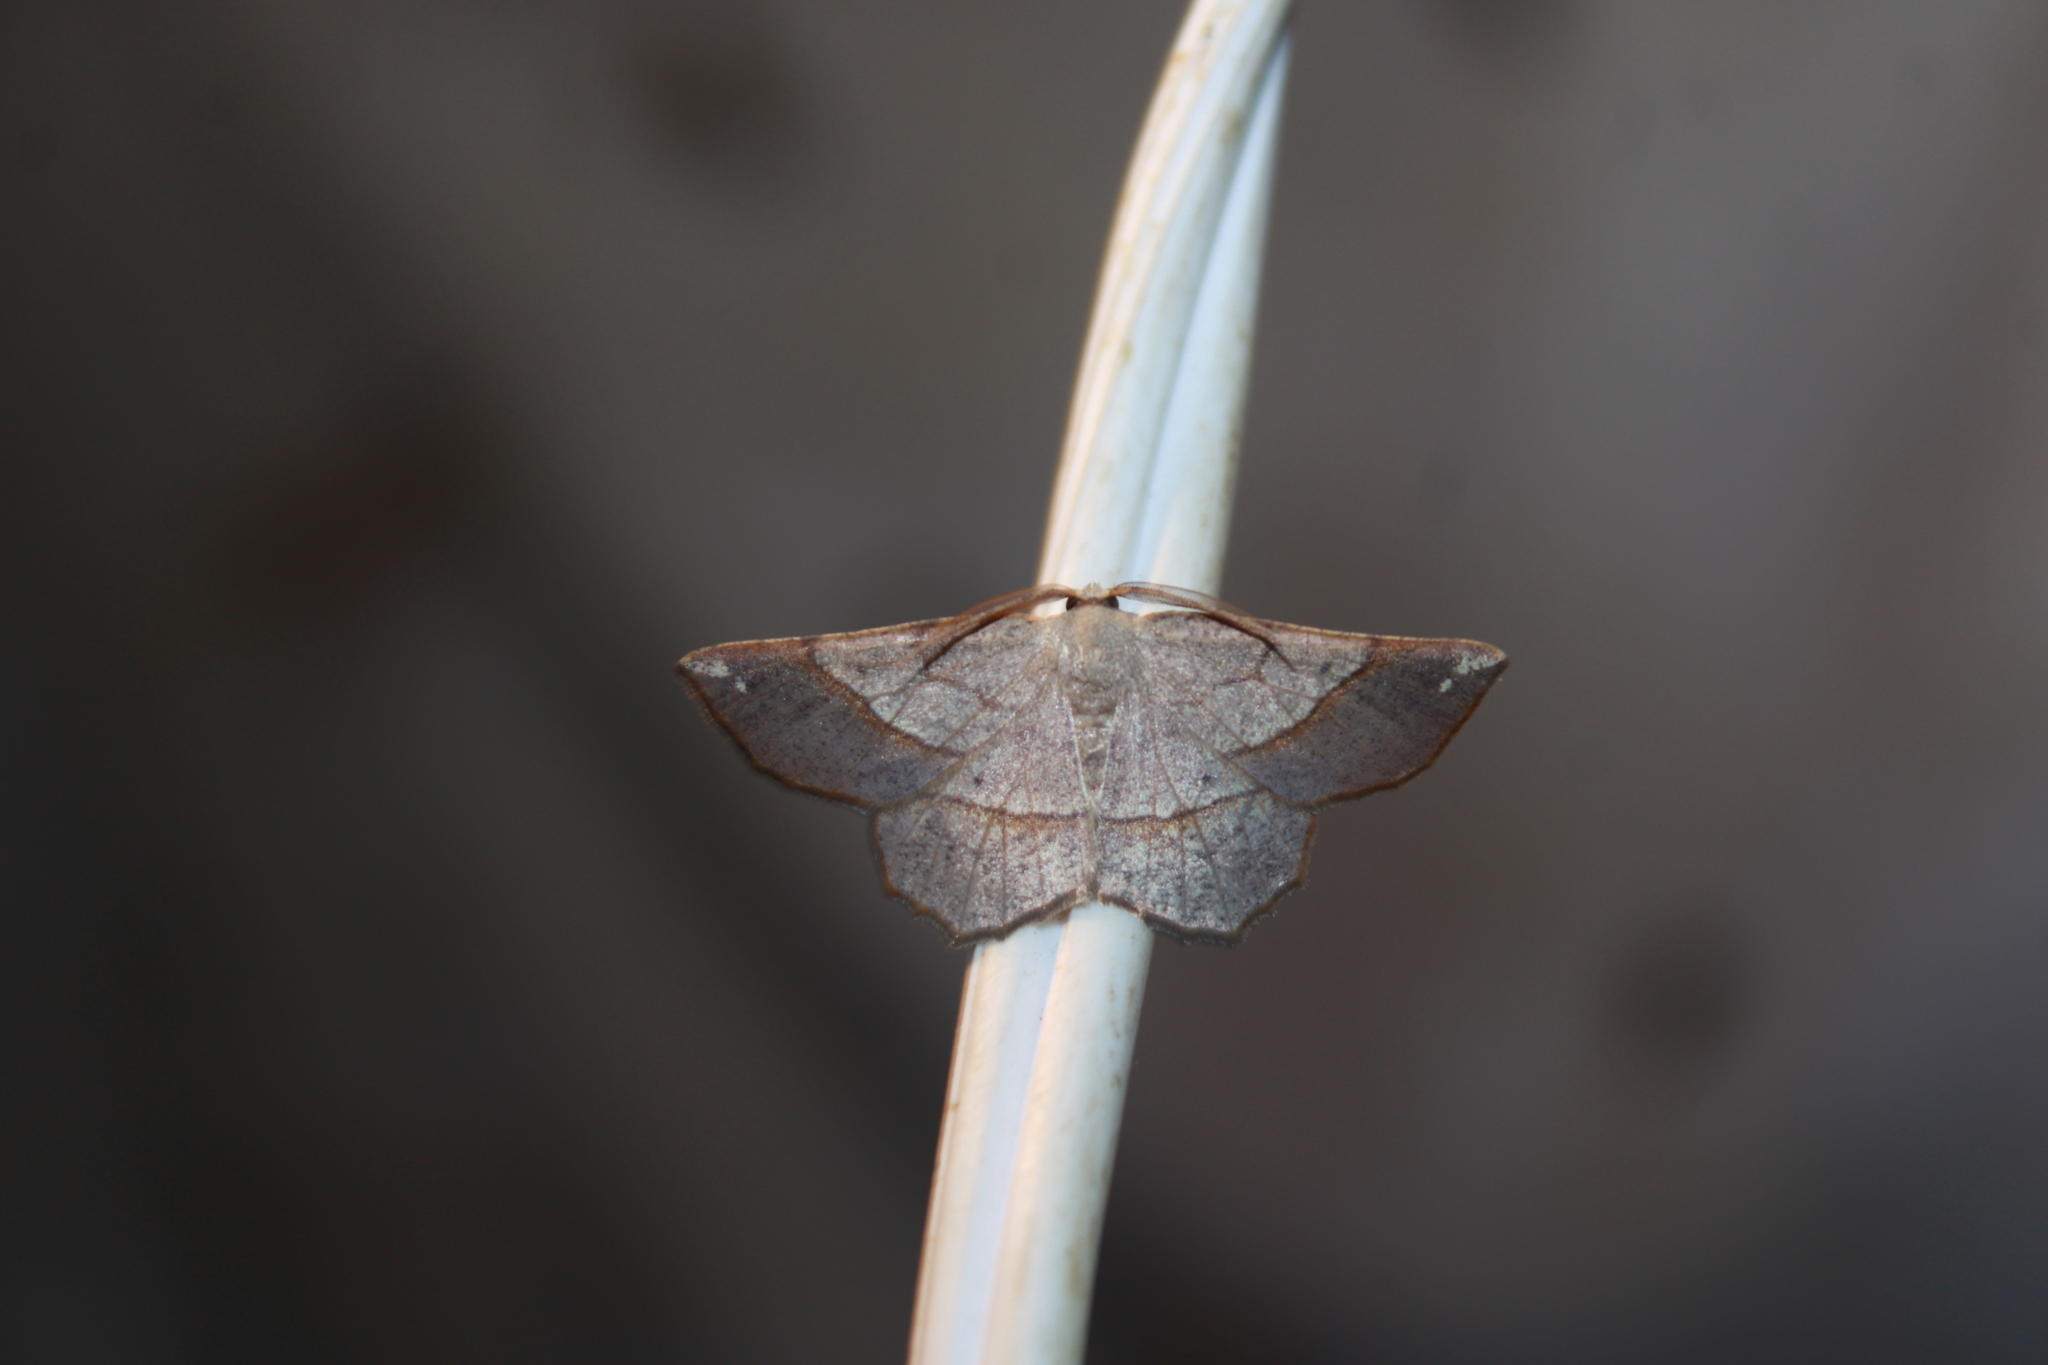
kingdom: Animalia
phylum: Arthropoda
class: Insecta
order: Lepidoptera
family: Geometridae
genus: Euchlaena
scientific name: Euchlaena madusaria
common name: Scrub euchlaena moth
